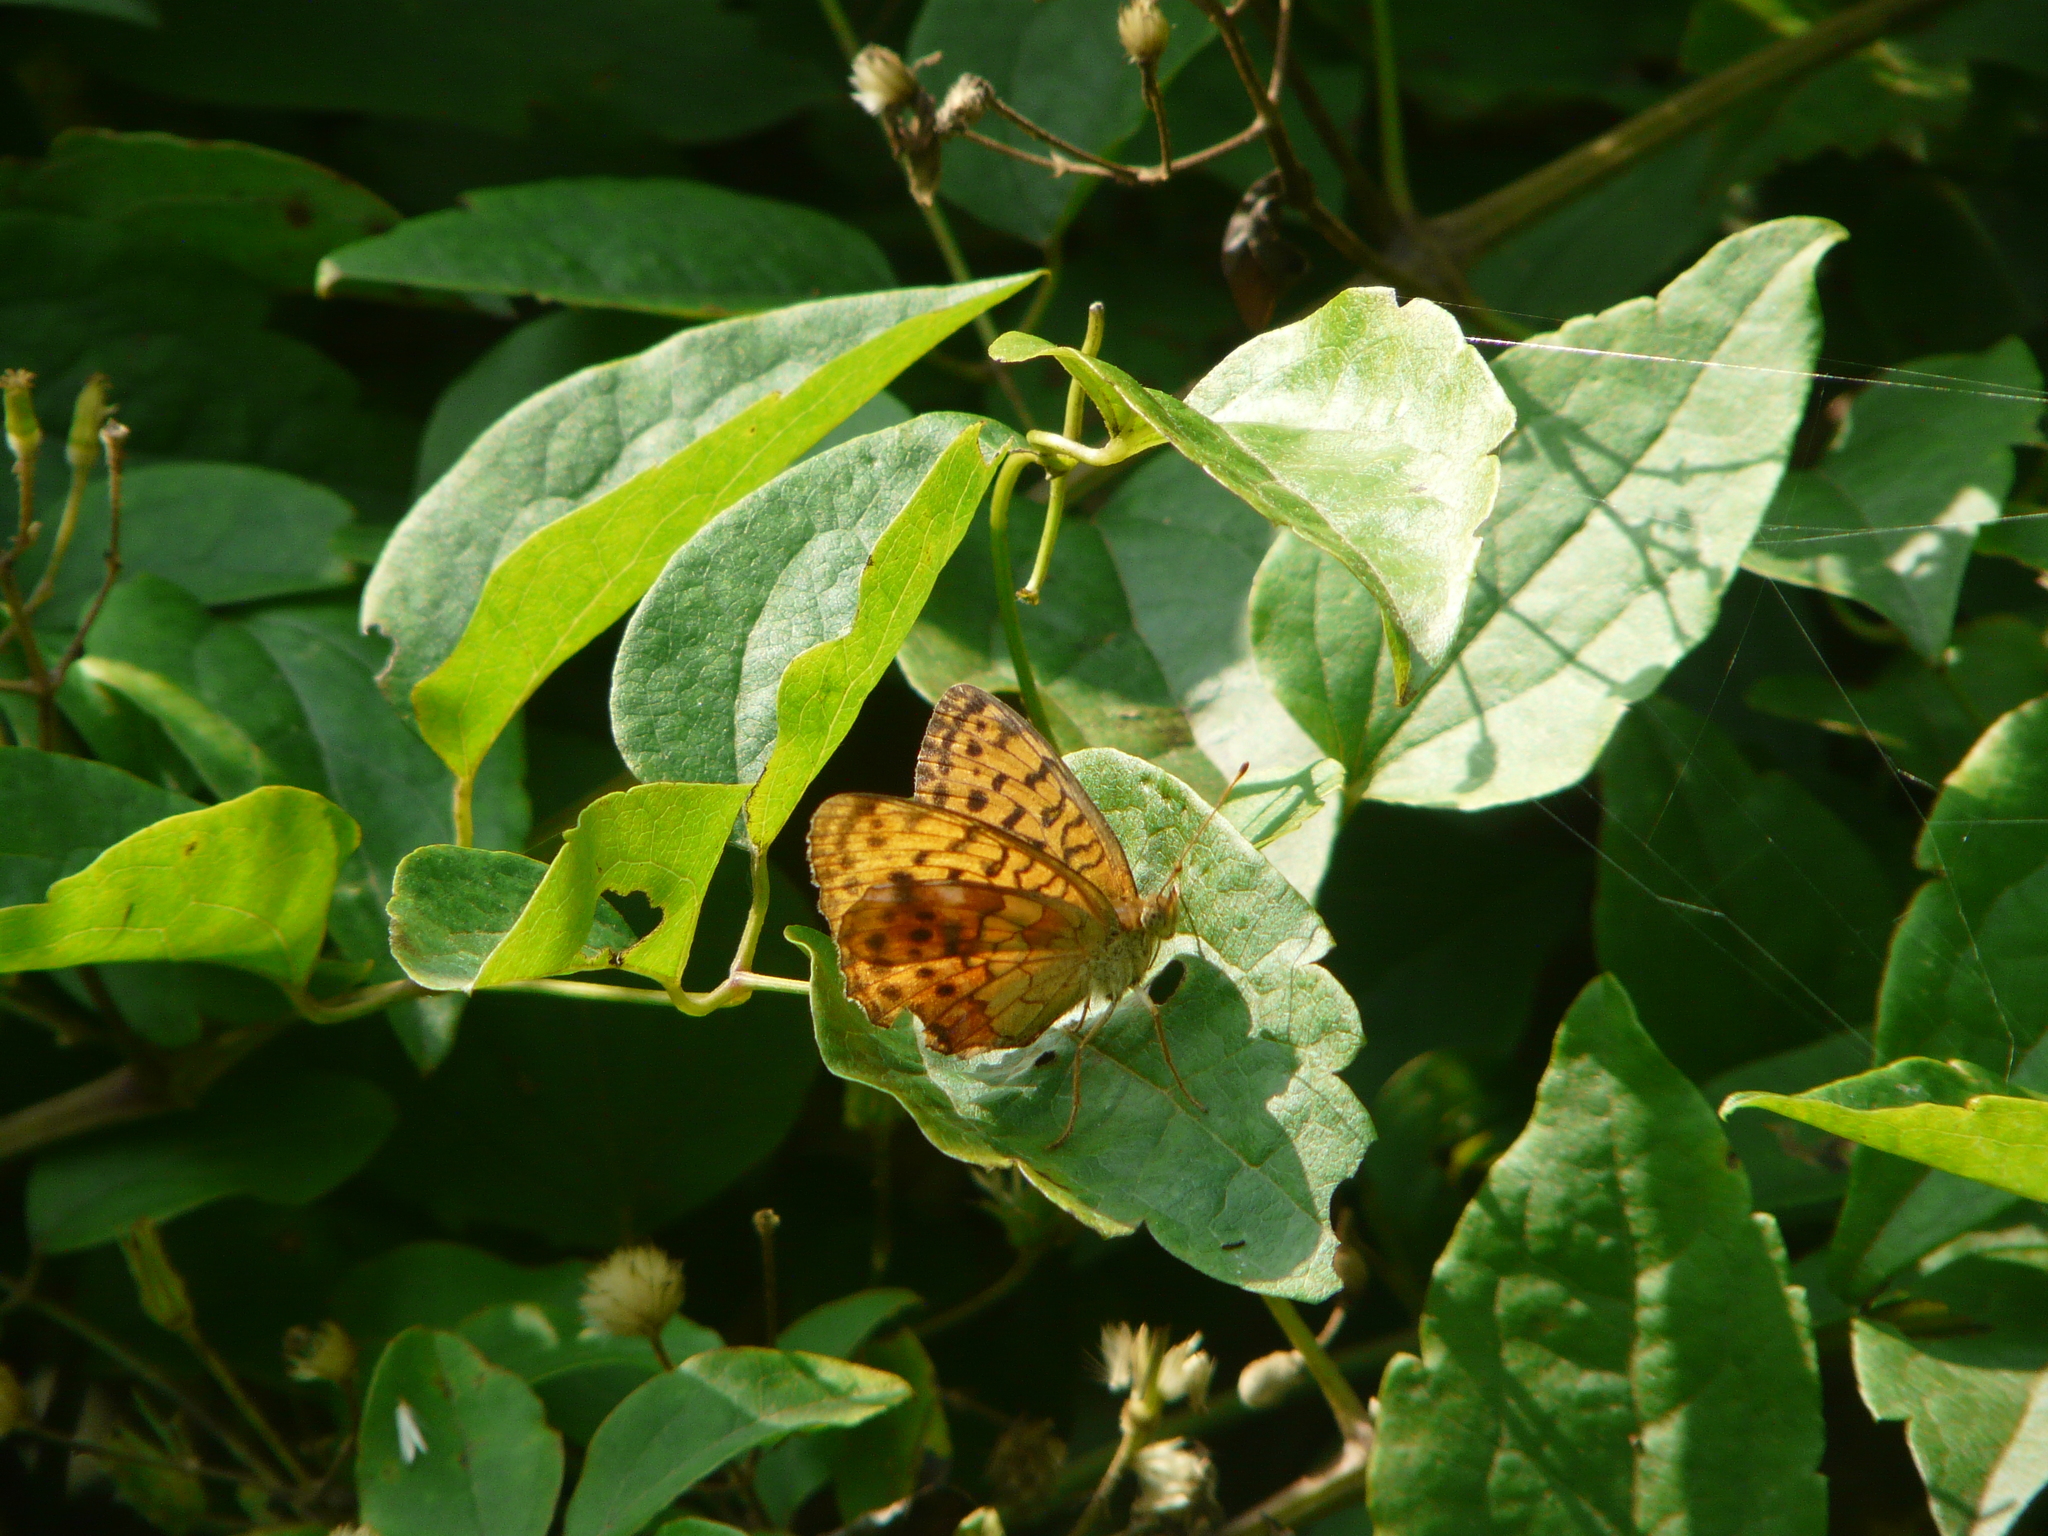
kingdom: Animalia
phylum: Arthropoda
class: Insecta
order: Lepidoptera
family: Nymphalidae
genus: Brenthis
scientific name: Brenthis daphne
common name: Marbled fritillary
